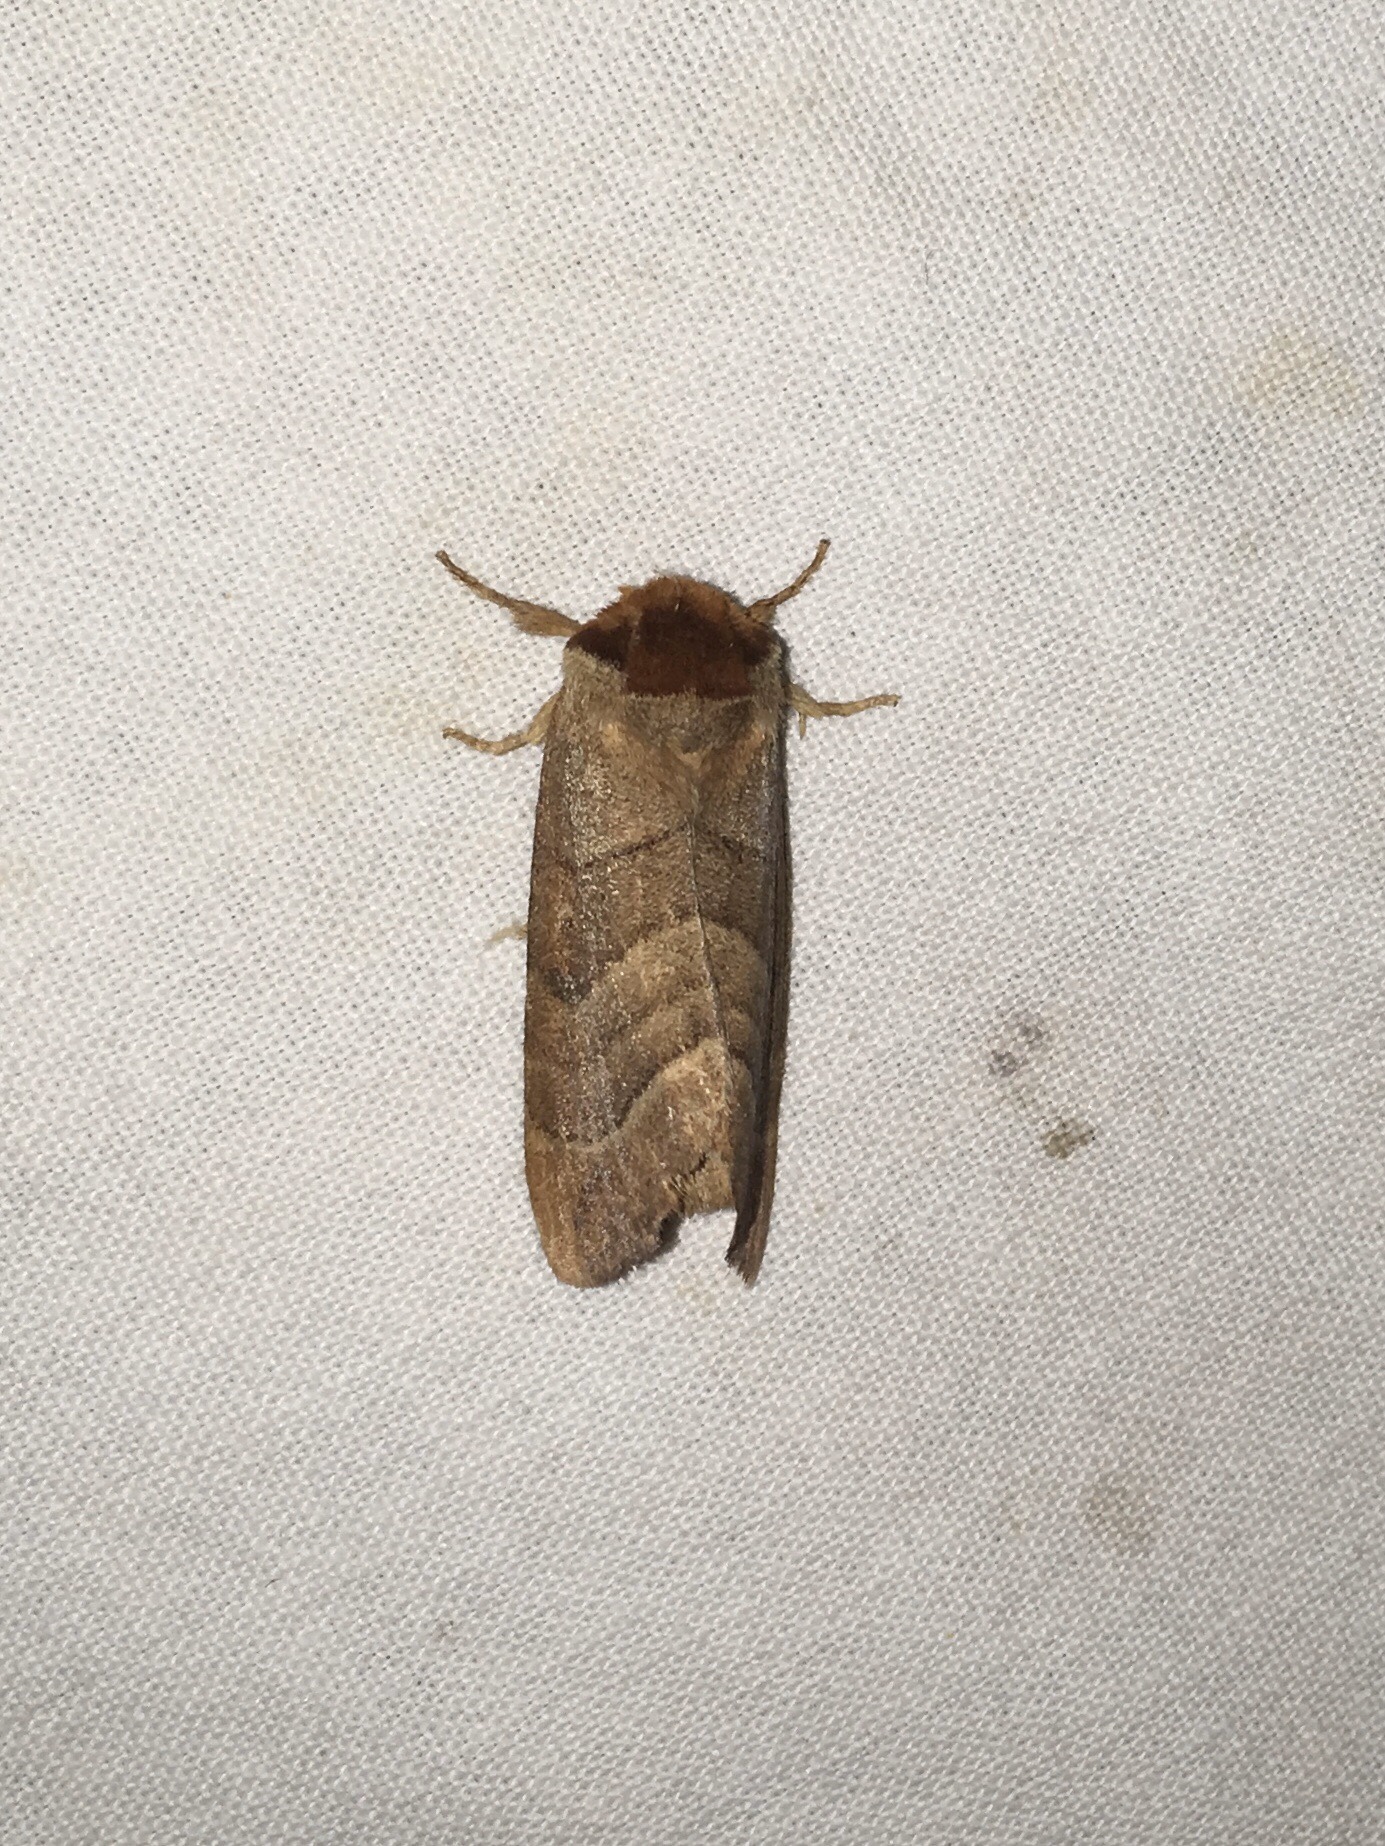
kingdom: Animalia
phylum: Arthropoda
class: Insecta
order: Lepidoptera
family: Notodontidae
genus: Datana
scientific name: Datana integerrima
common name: Walnut caterpillar
